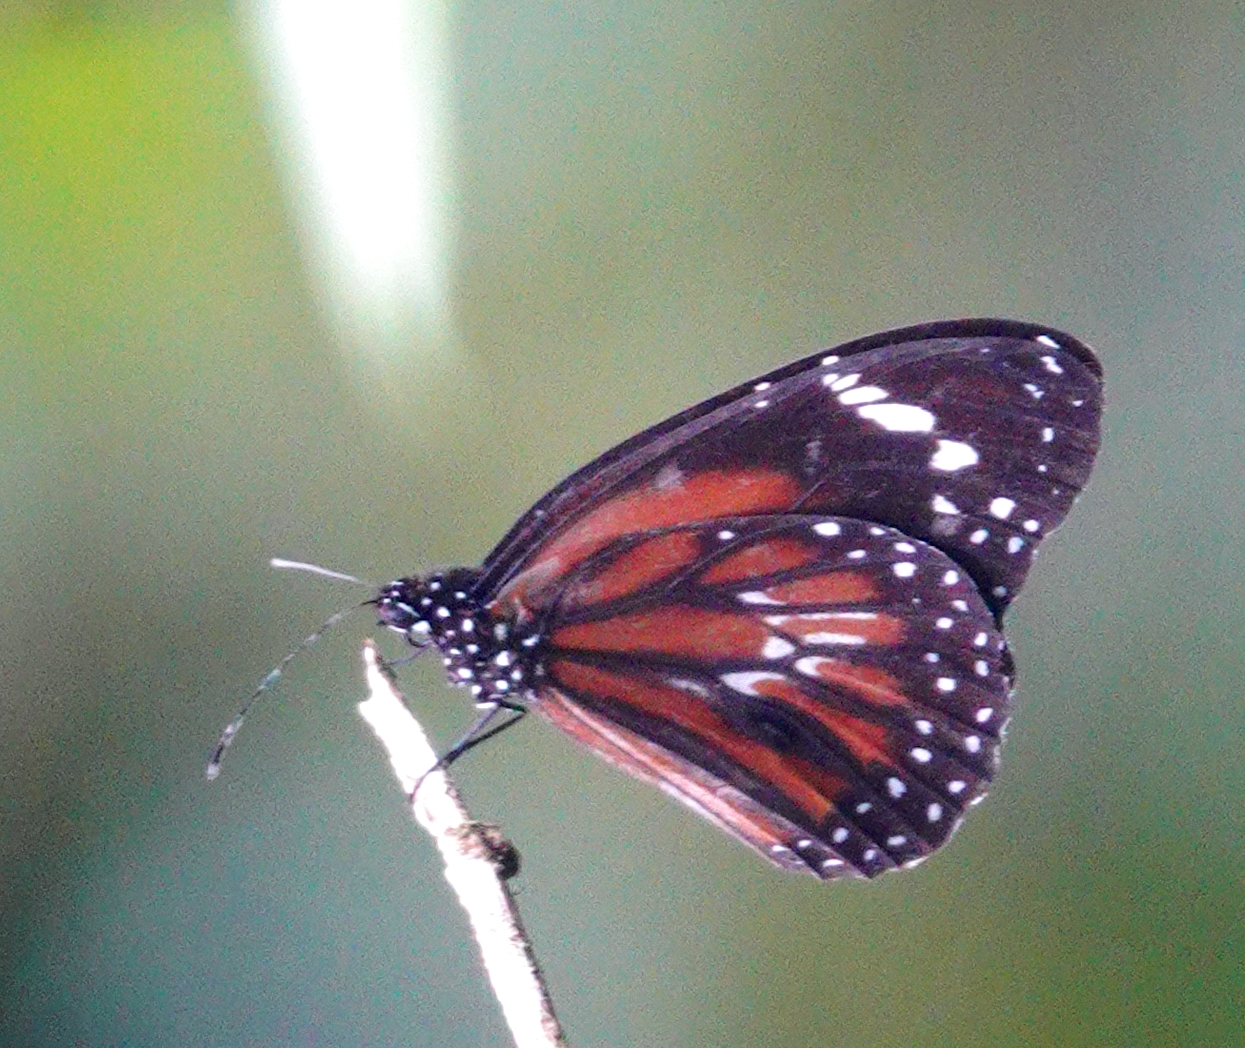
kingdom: Animalia
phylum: Arthropoda
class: Insecta
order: Lepidoptera
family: Nymphalidae
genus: Danaus
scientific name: Danaus affinis
